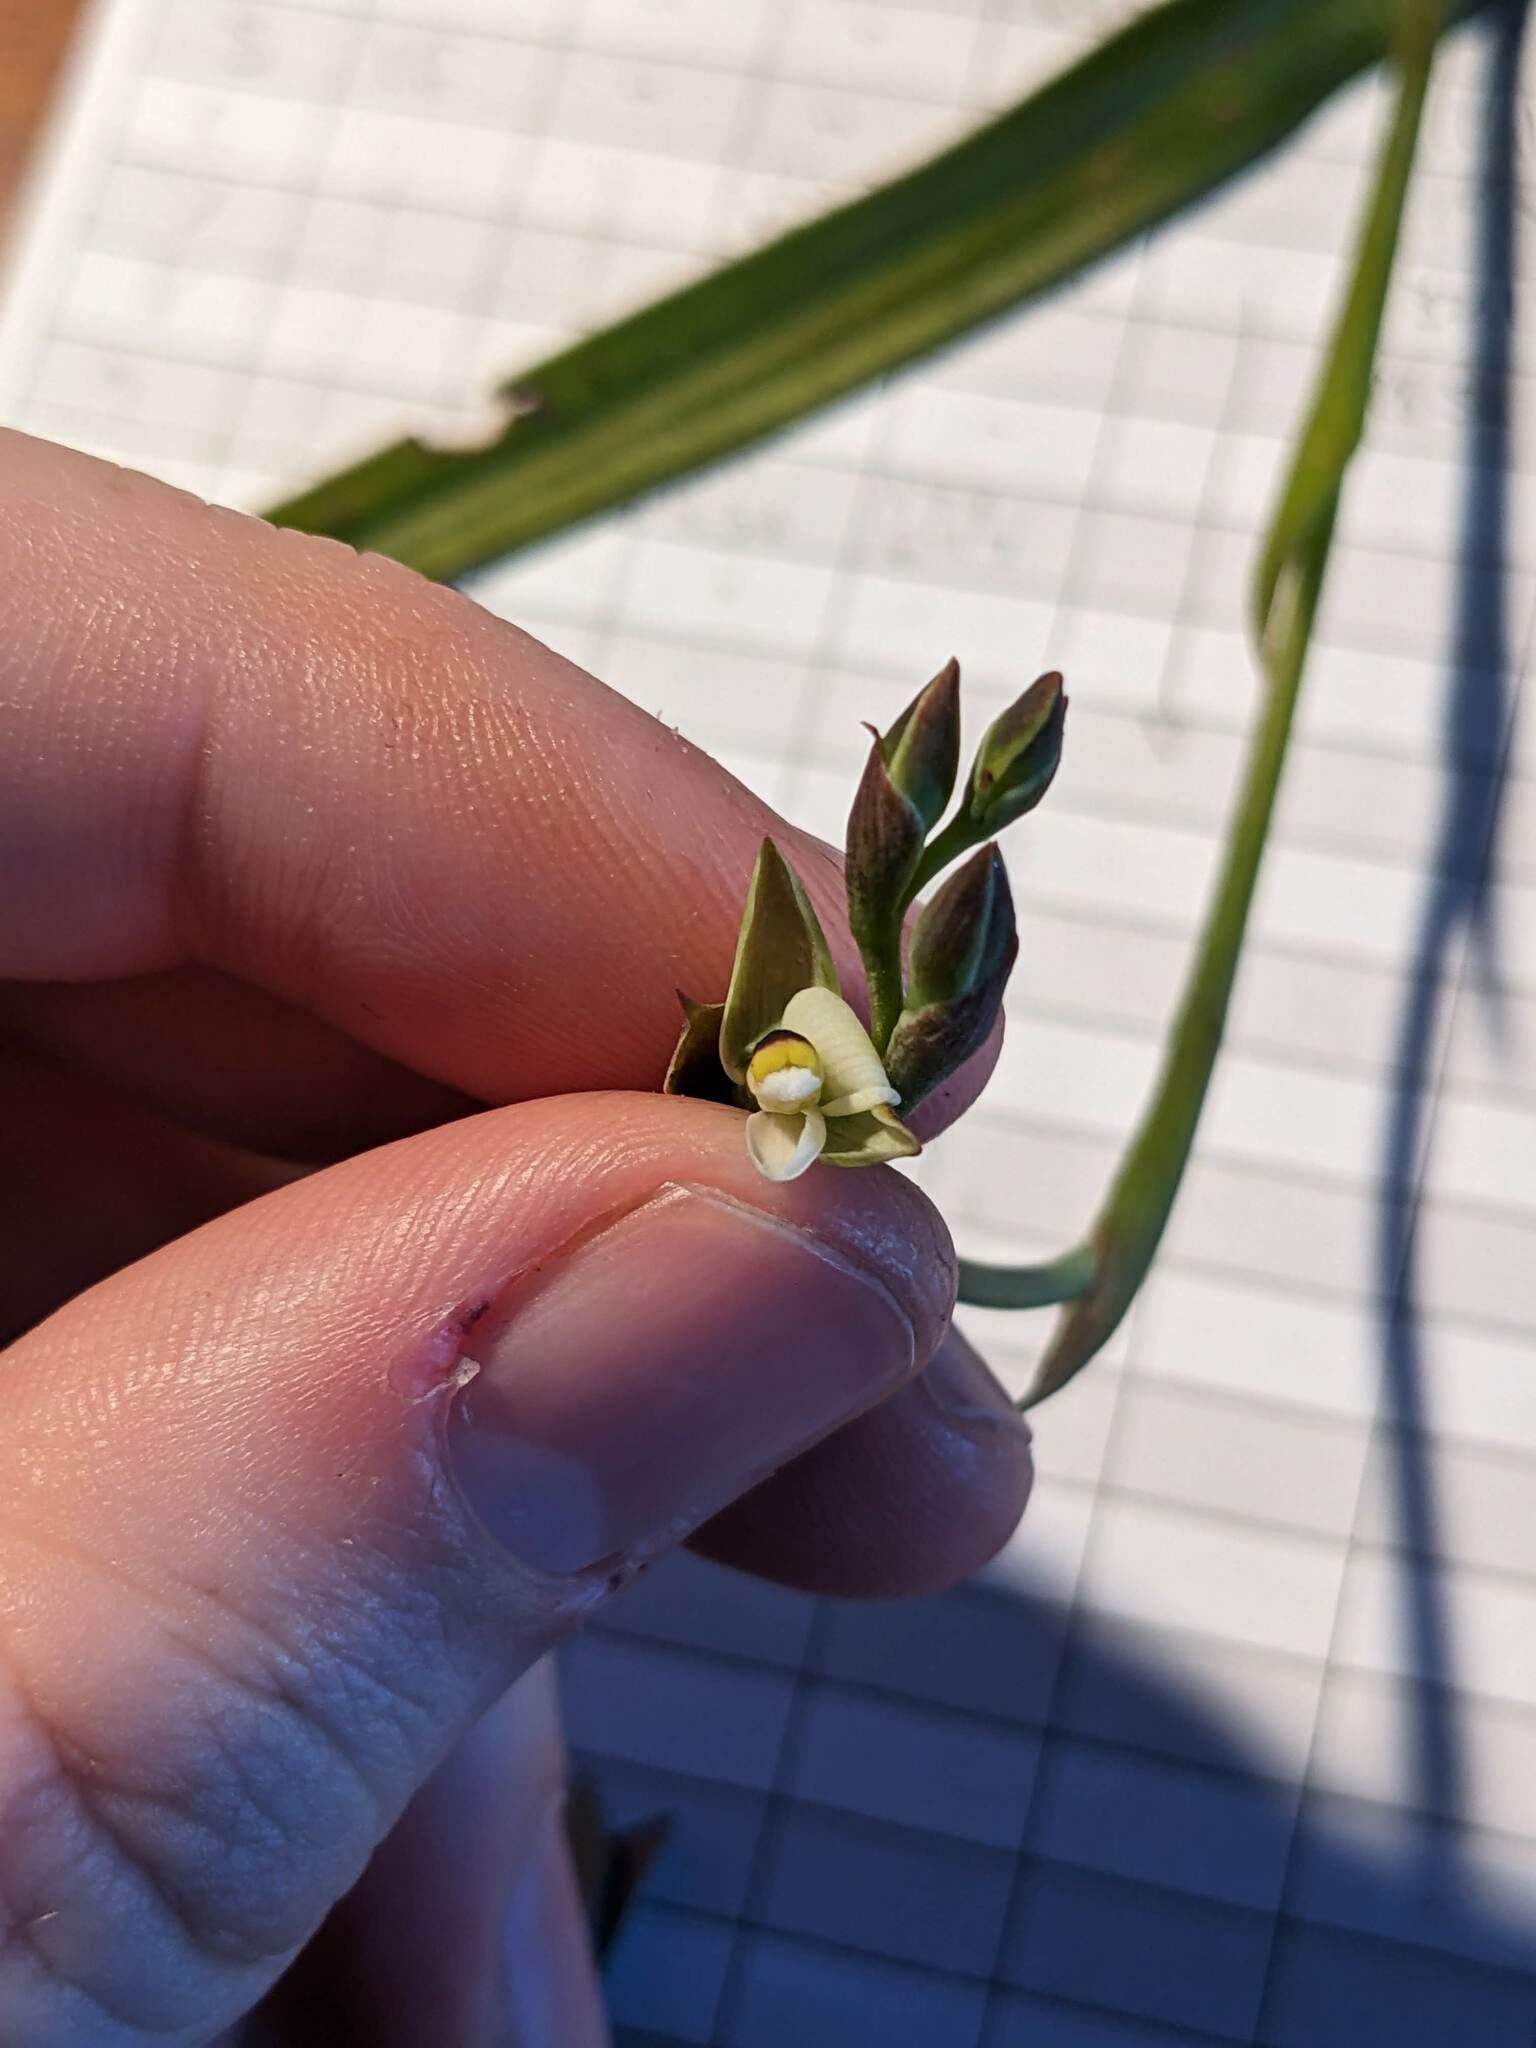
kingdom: Plantae
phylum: Tracheophyta
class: Liliopsida
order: Asparagales
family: Orchidaceae
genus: Thelymitra
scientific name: Thelymitra longifolia
